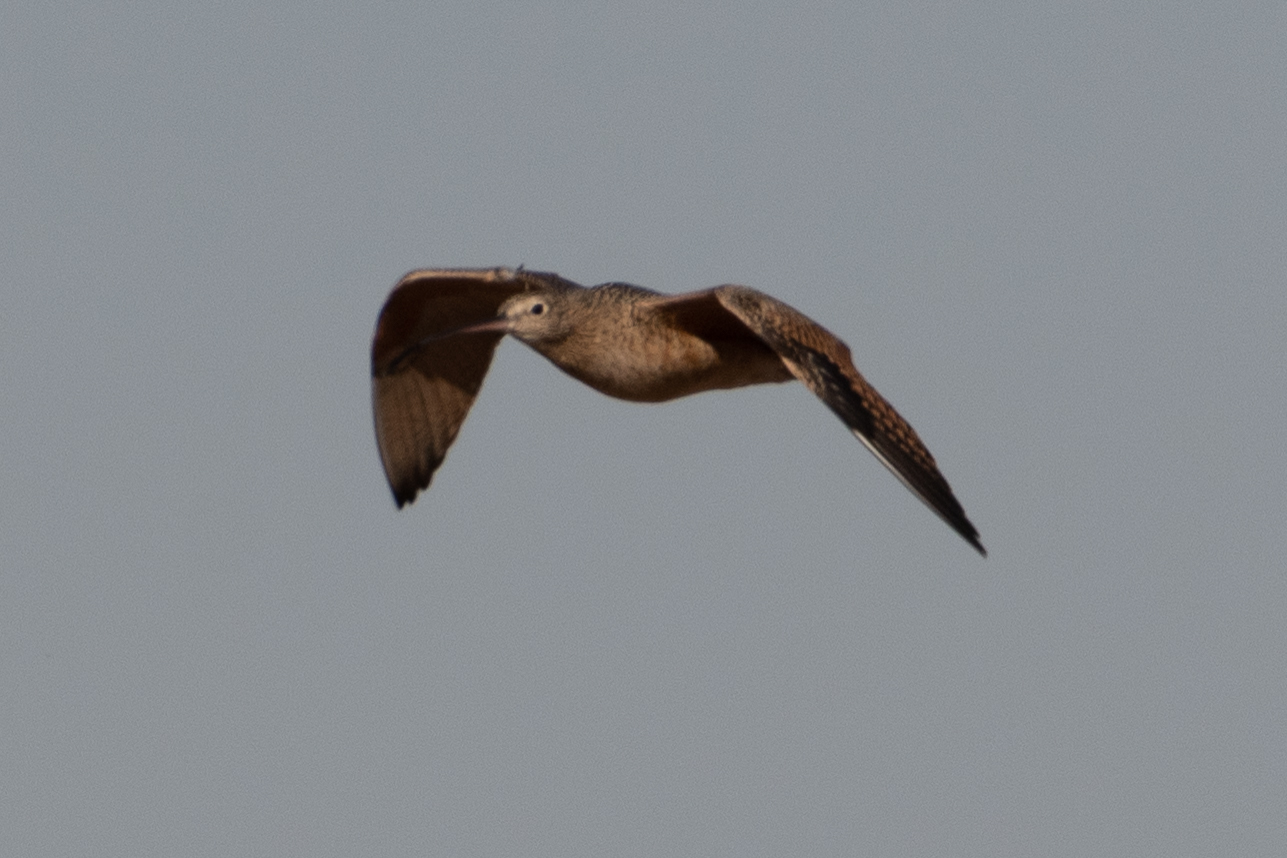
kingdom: Animalia
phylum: Chordata
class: Aves
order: Charadriiformes
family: Scolopacidae
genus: Numenius
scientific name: Numenius americanus
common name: Long-billed curlew
